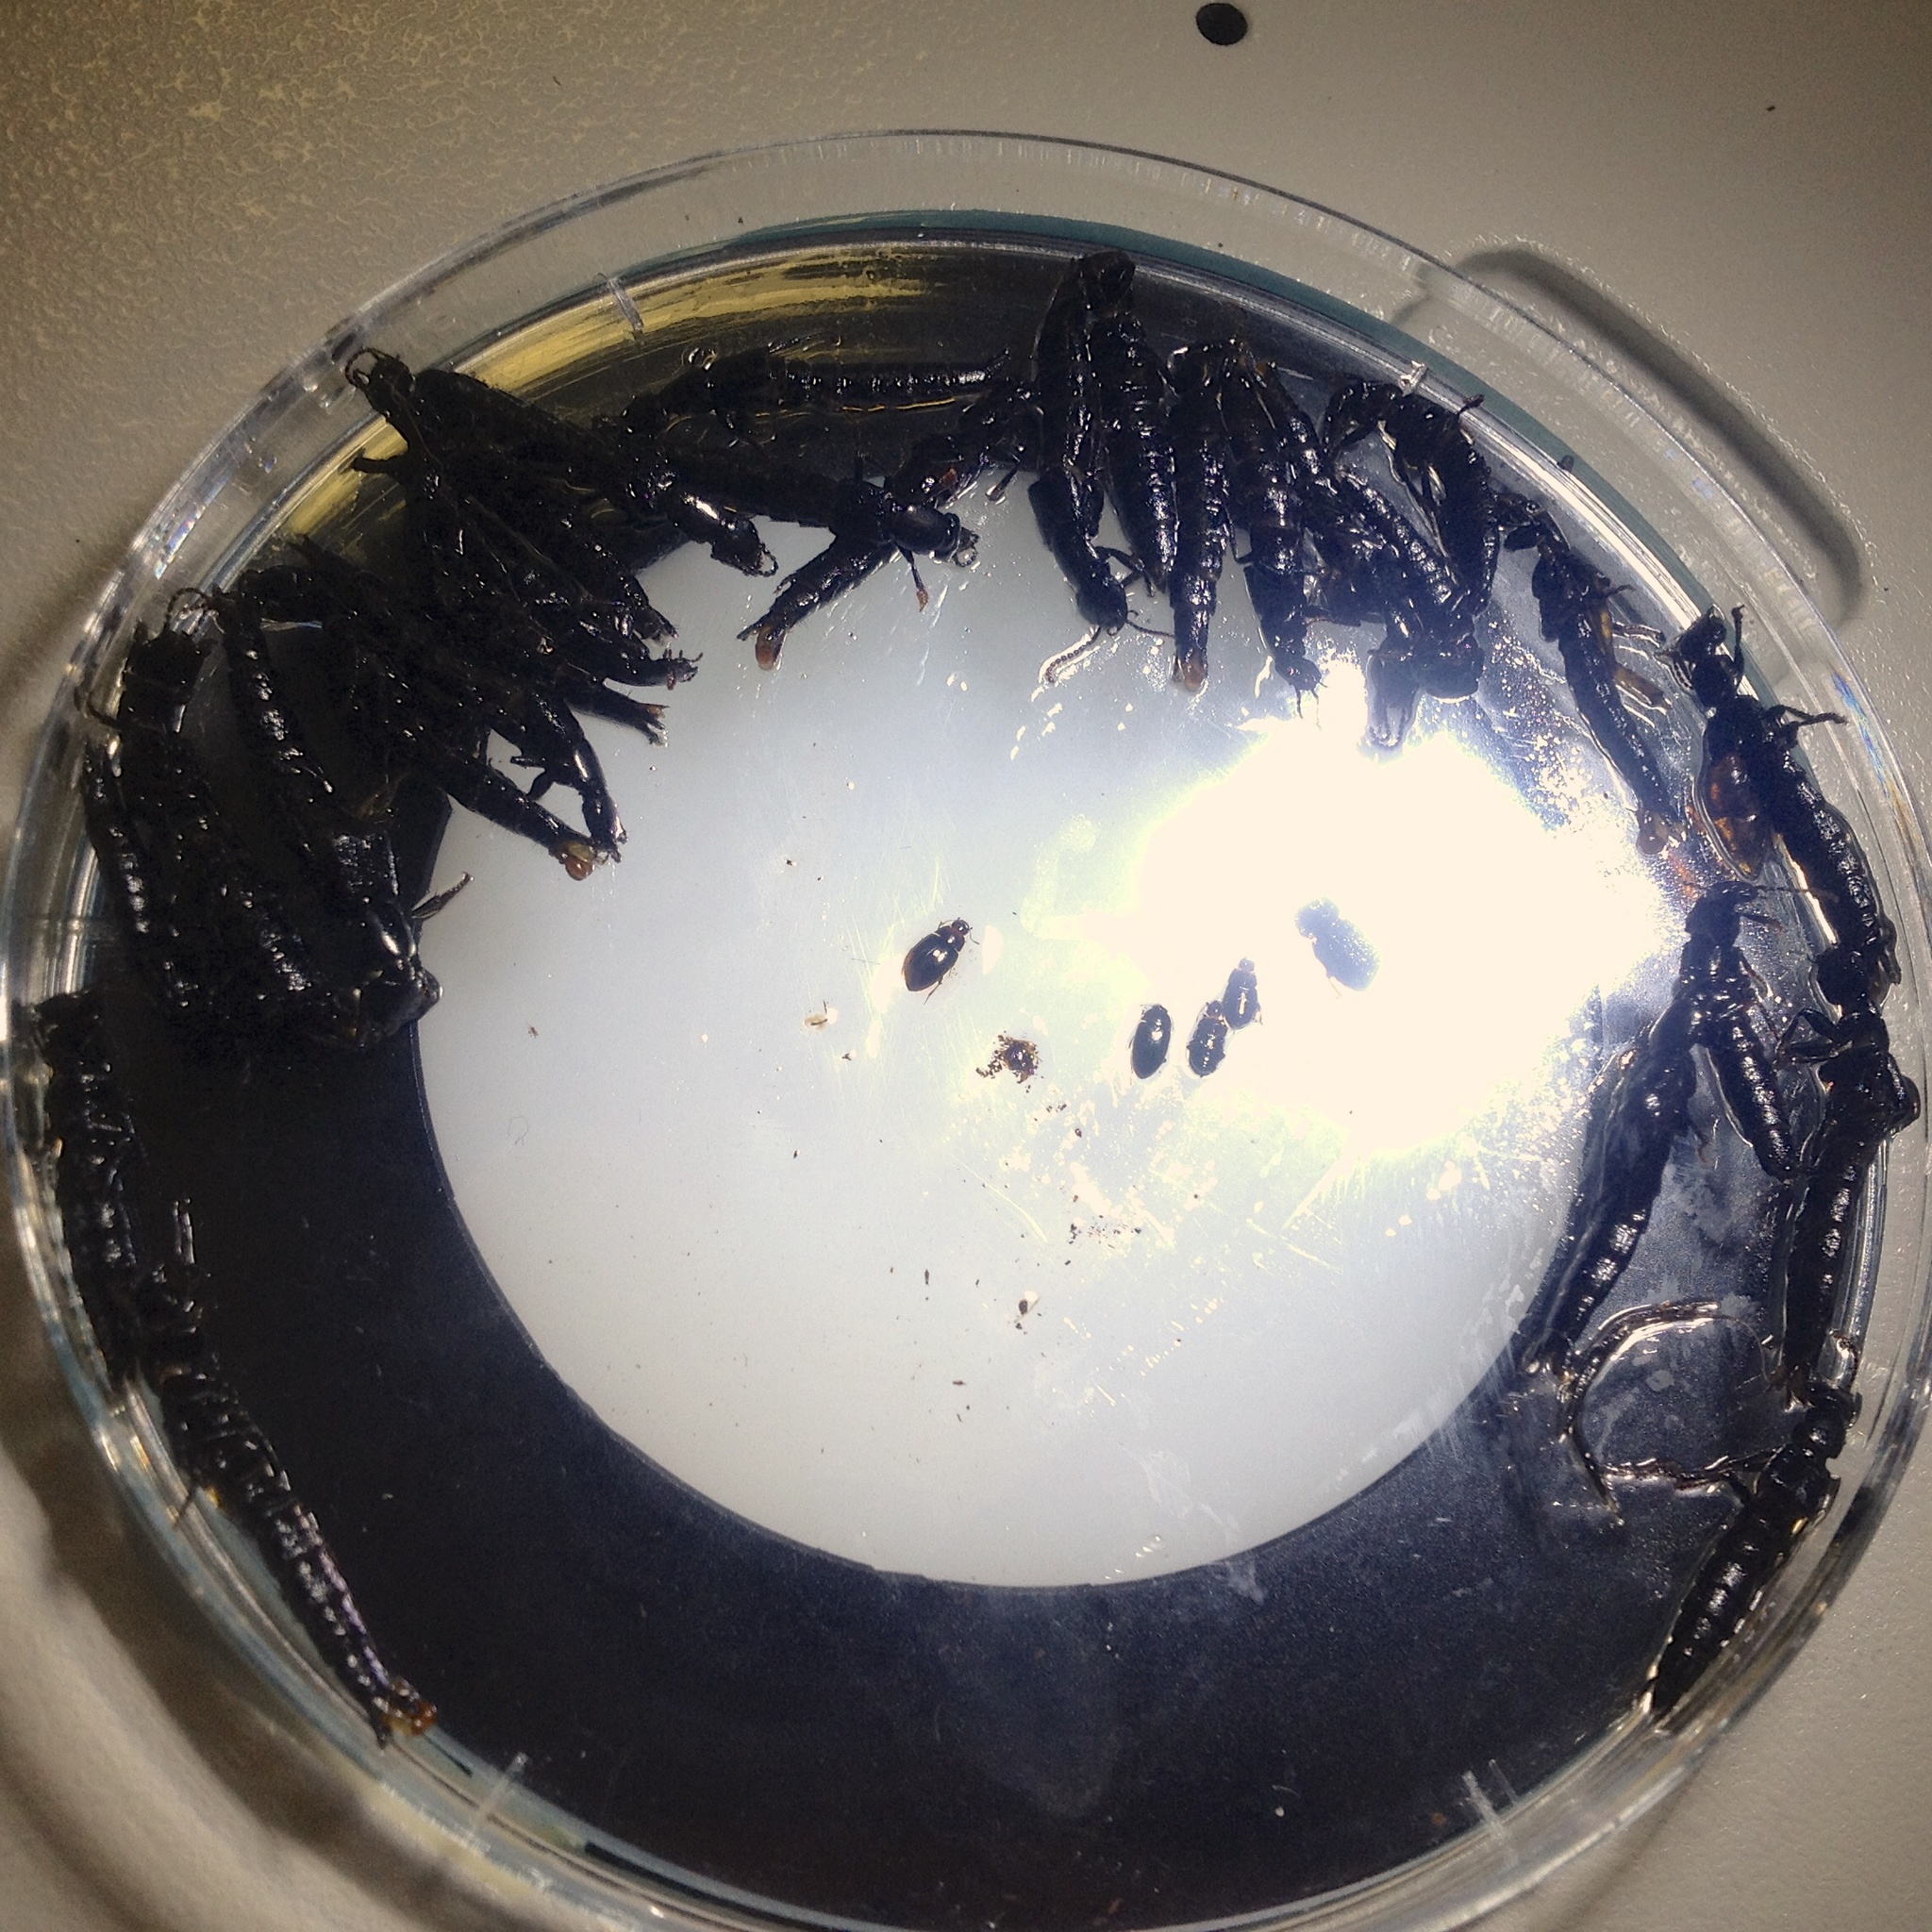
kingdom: Animalia
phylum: Arthropoda
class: Insecta
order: Coleoptera
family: Staphylinidae
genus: Tasgius
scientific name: Tasgius ater
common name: Staph beetle
